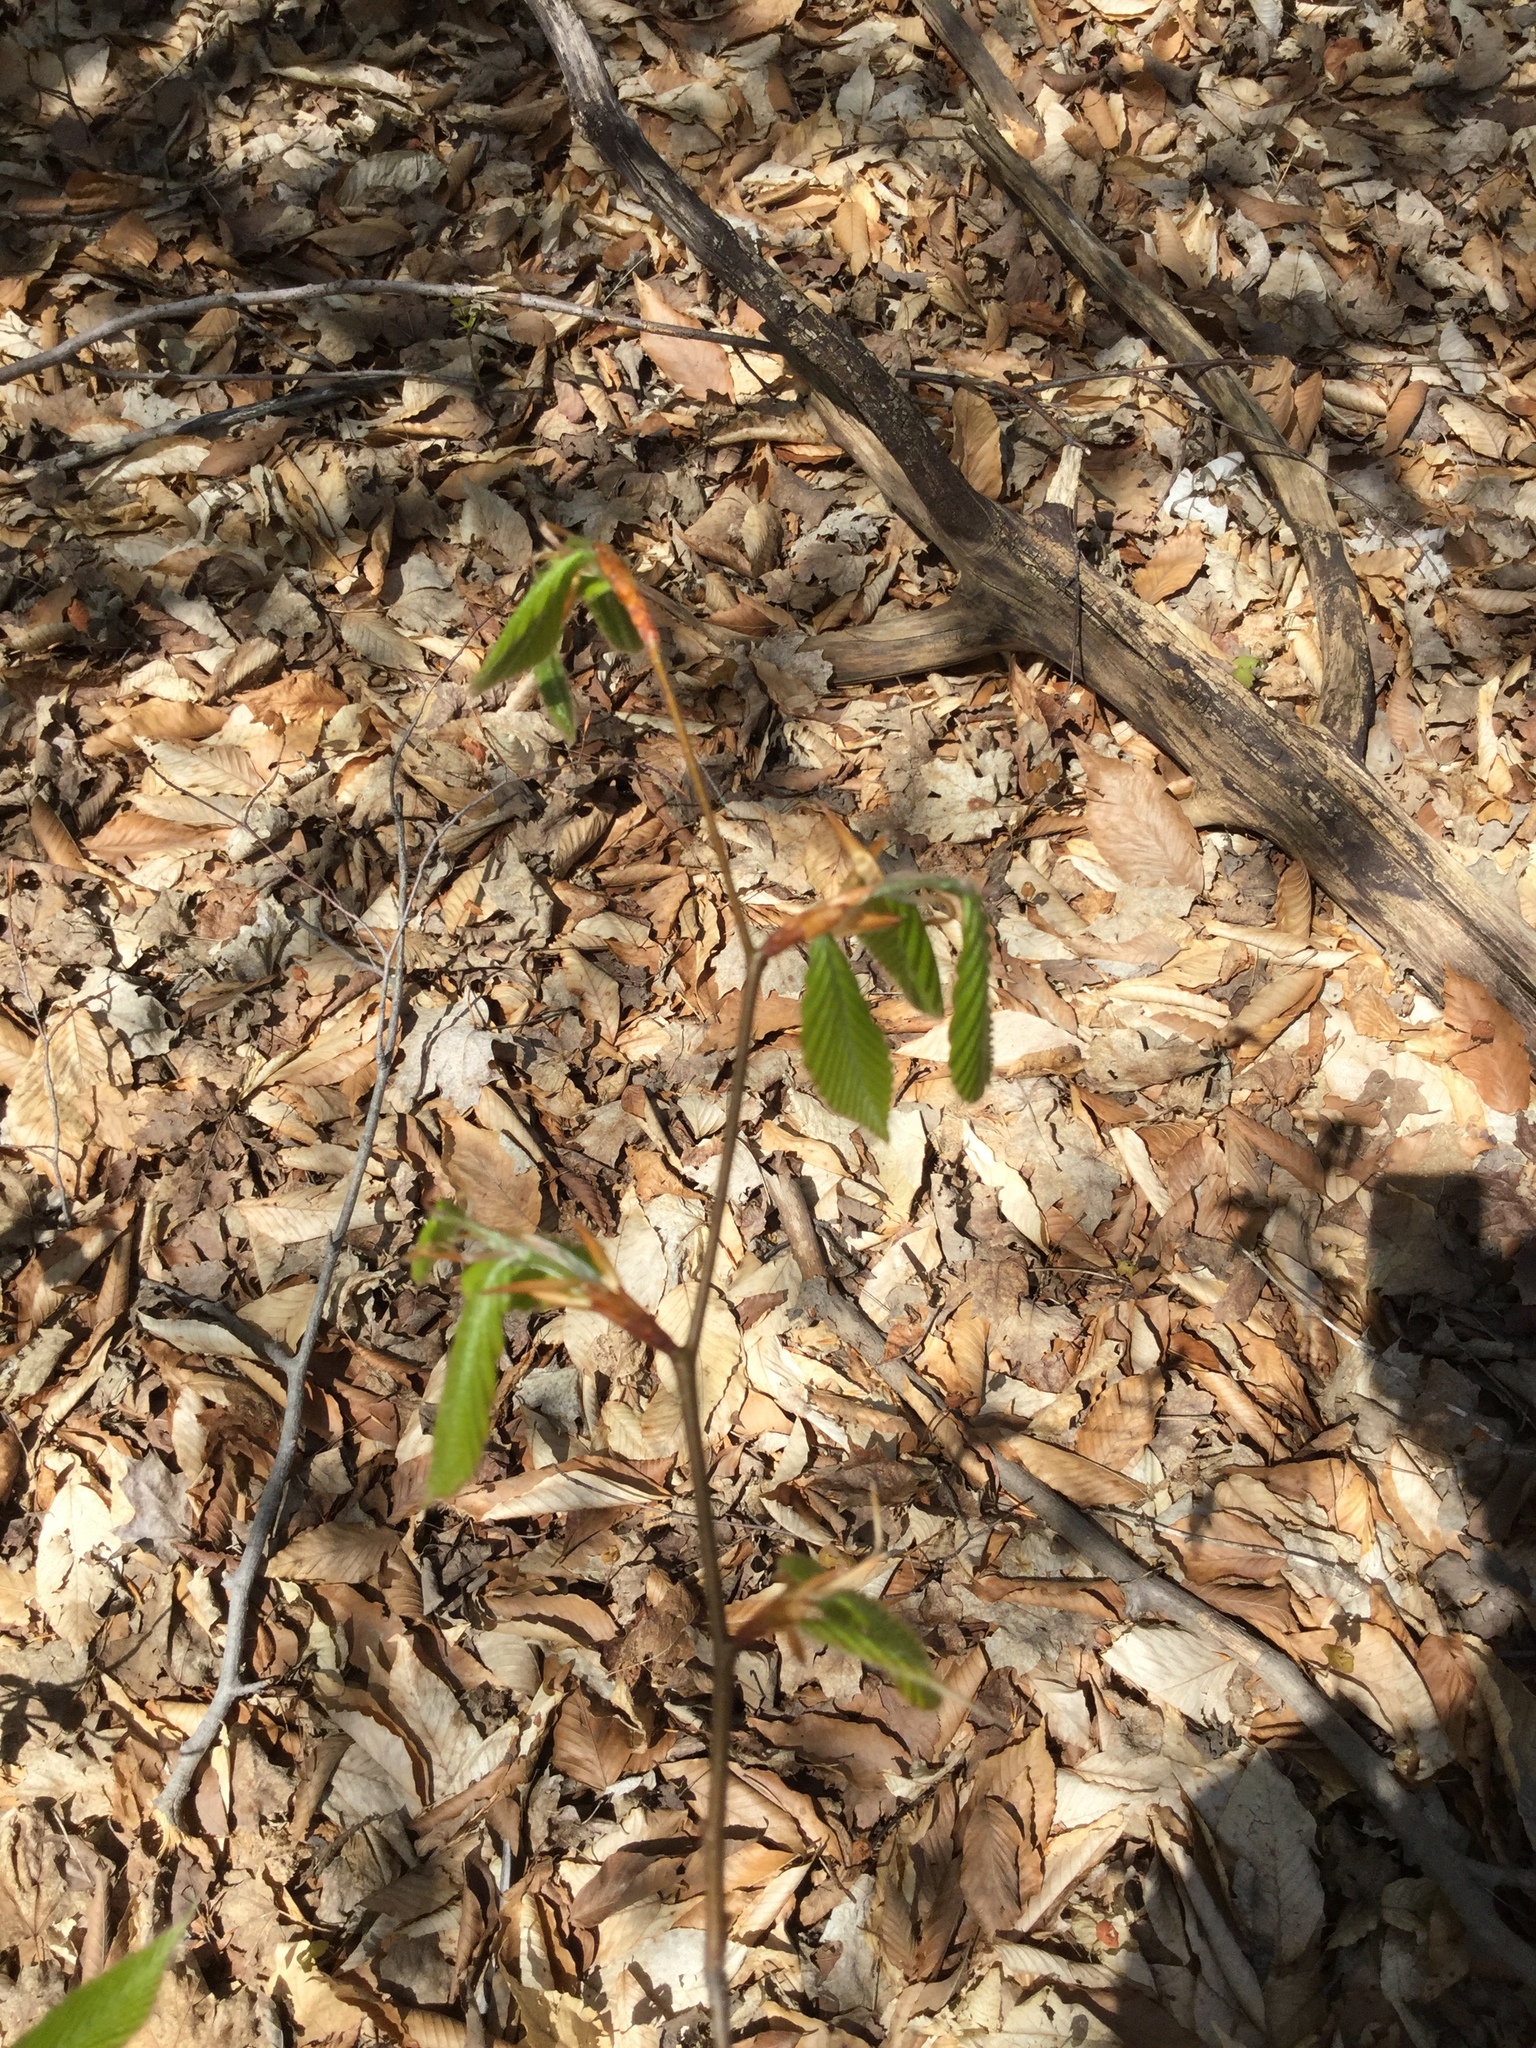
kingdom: Plantae
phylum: Tracheophyta
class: Magnoliopsida
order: Fagales
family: Fagaceae
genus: Fagus
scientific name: Fagus grandifolia
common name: American beech
